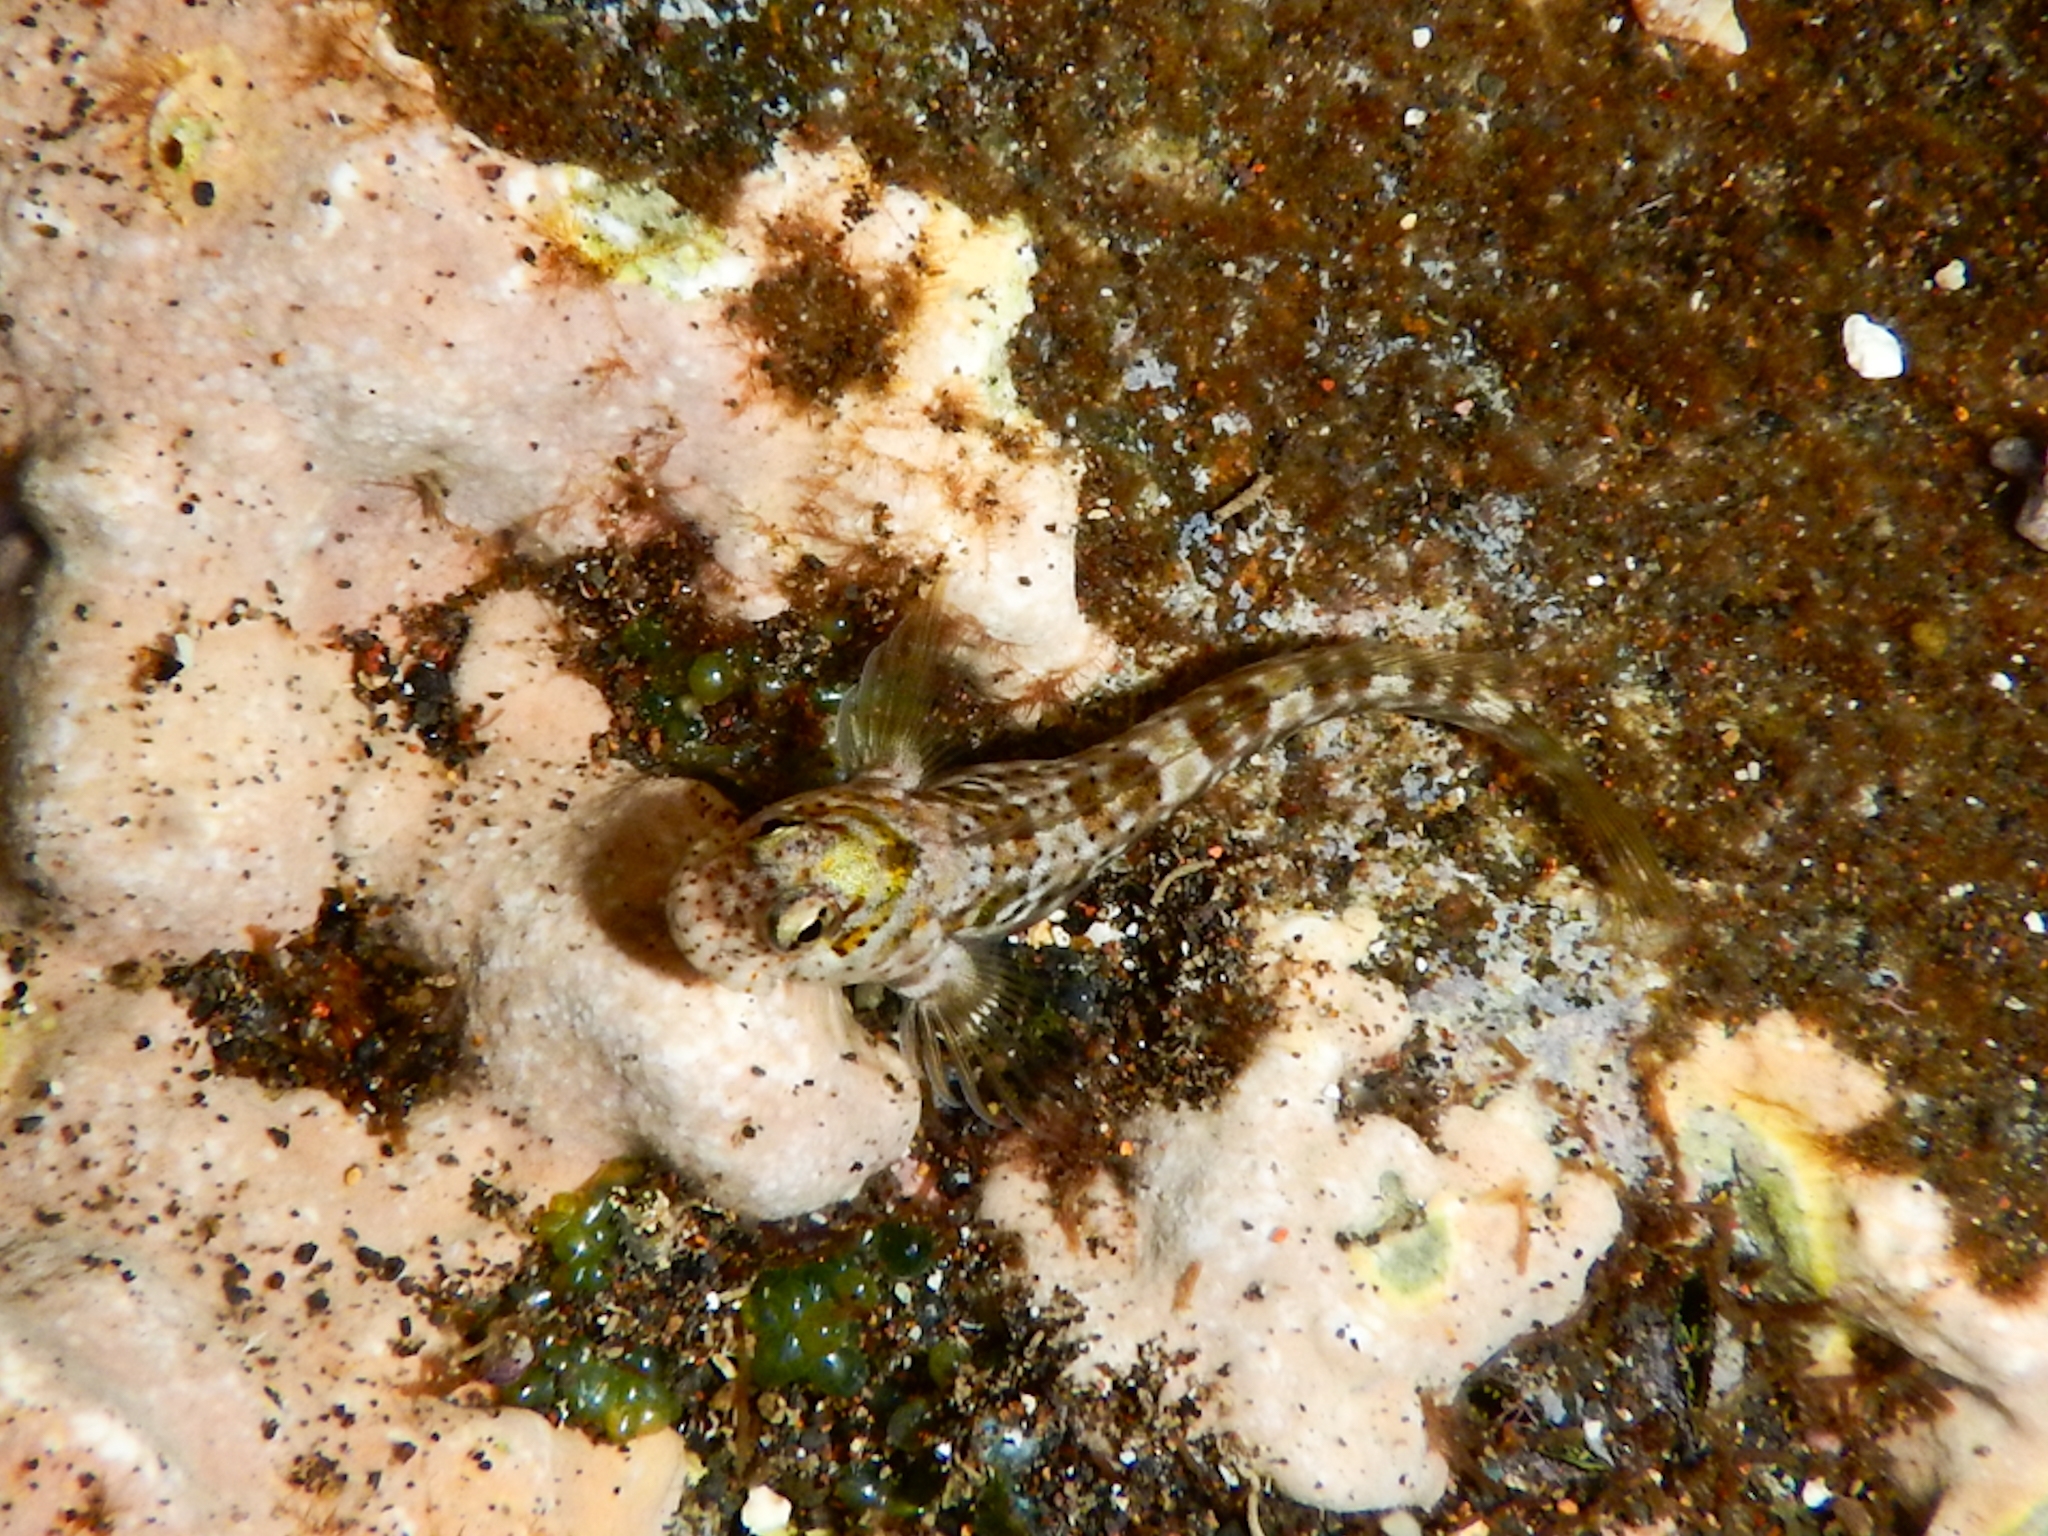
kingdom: Animalia
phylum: Chordata
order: Perciformes
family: Blenniidae
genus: Entomacrodus
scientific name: Entomacrodus cadenati
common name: West african rockhopper
